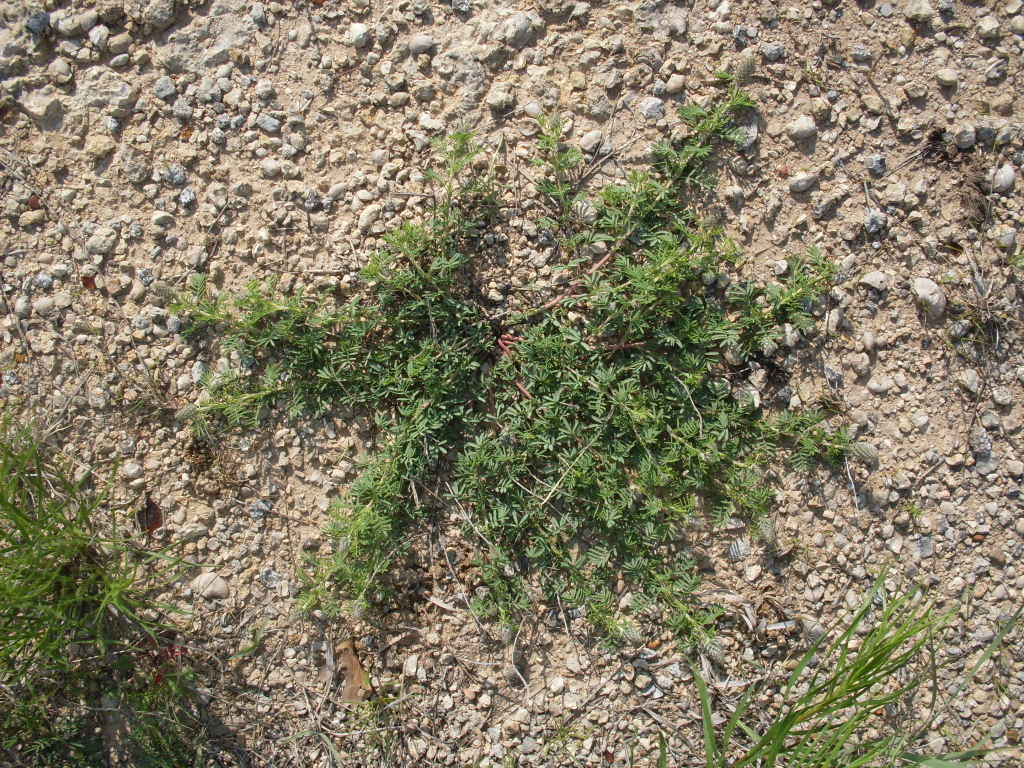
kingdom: Plantae
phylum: Tracheophyta
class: Magnoliopsida
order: Fabales
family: Fabaceae
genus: Dalea
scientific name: Dalea reverchonii
